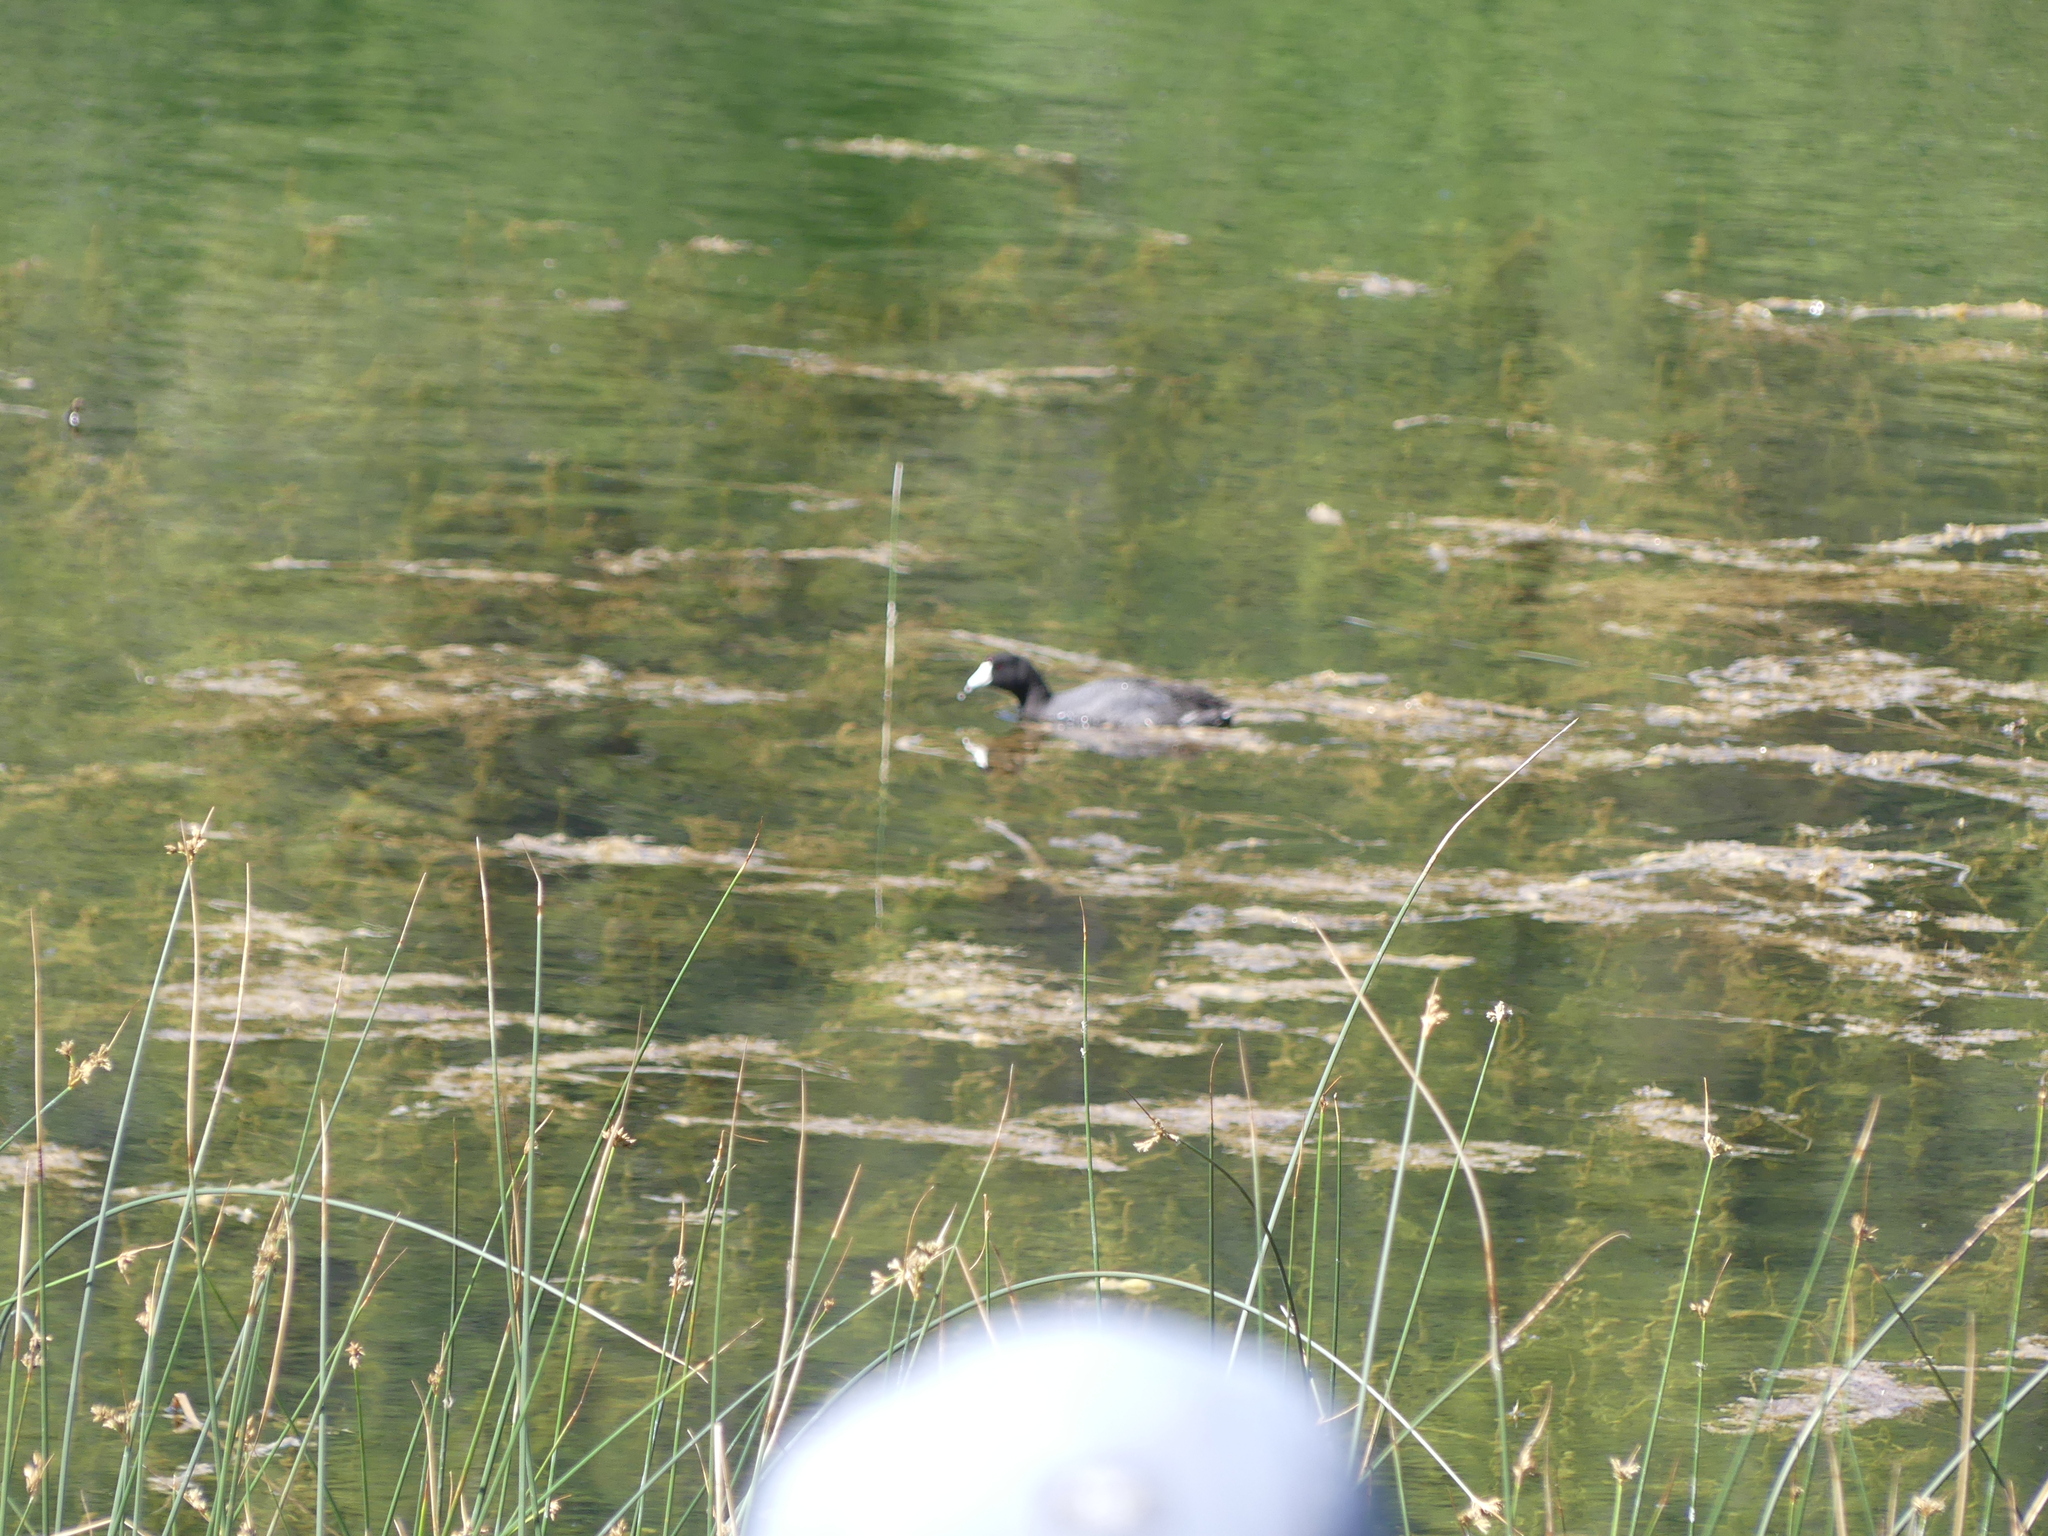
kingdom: Animalia
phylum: Chordata
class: Aves
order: Gruiformes
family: Rallidae
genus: Fulica
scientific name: Fulica americana
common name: American coot
